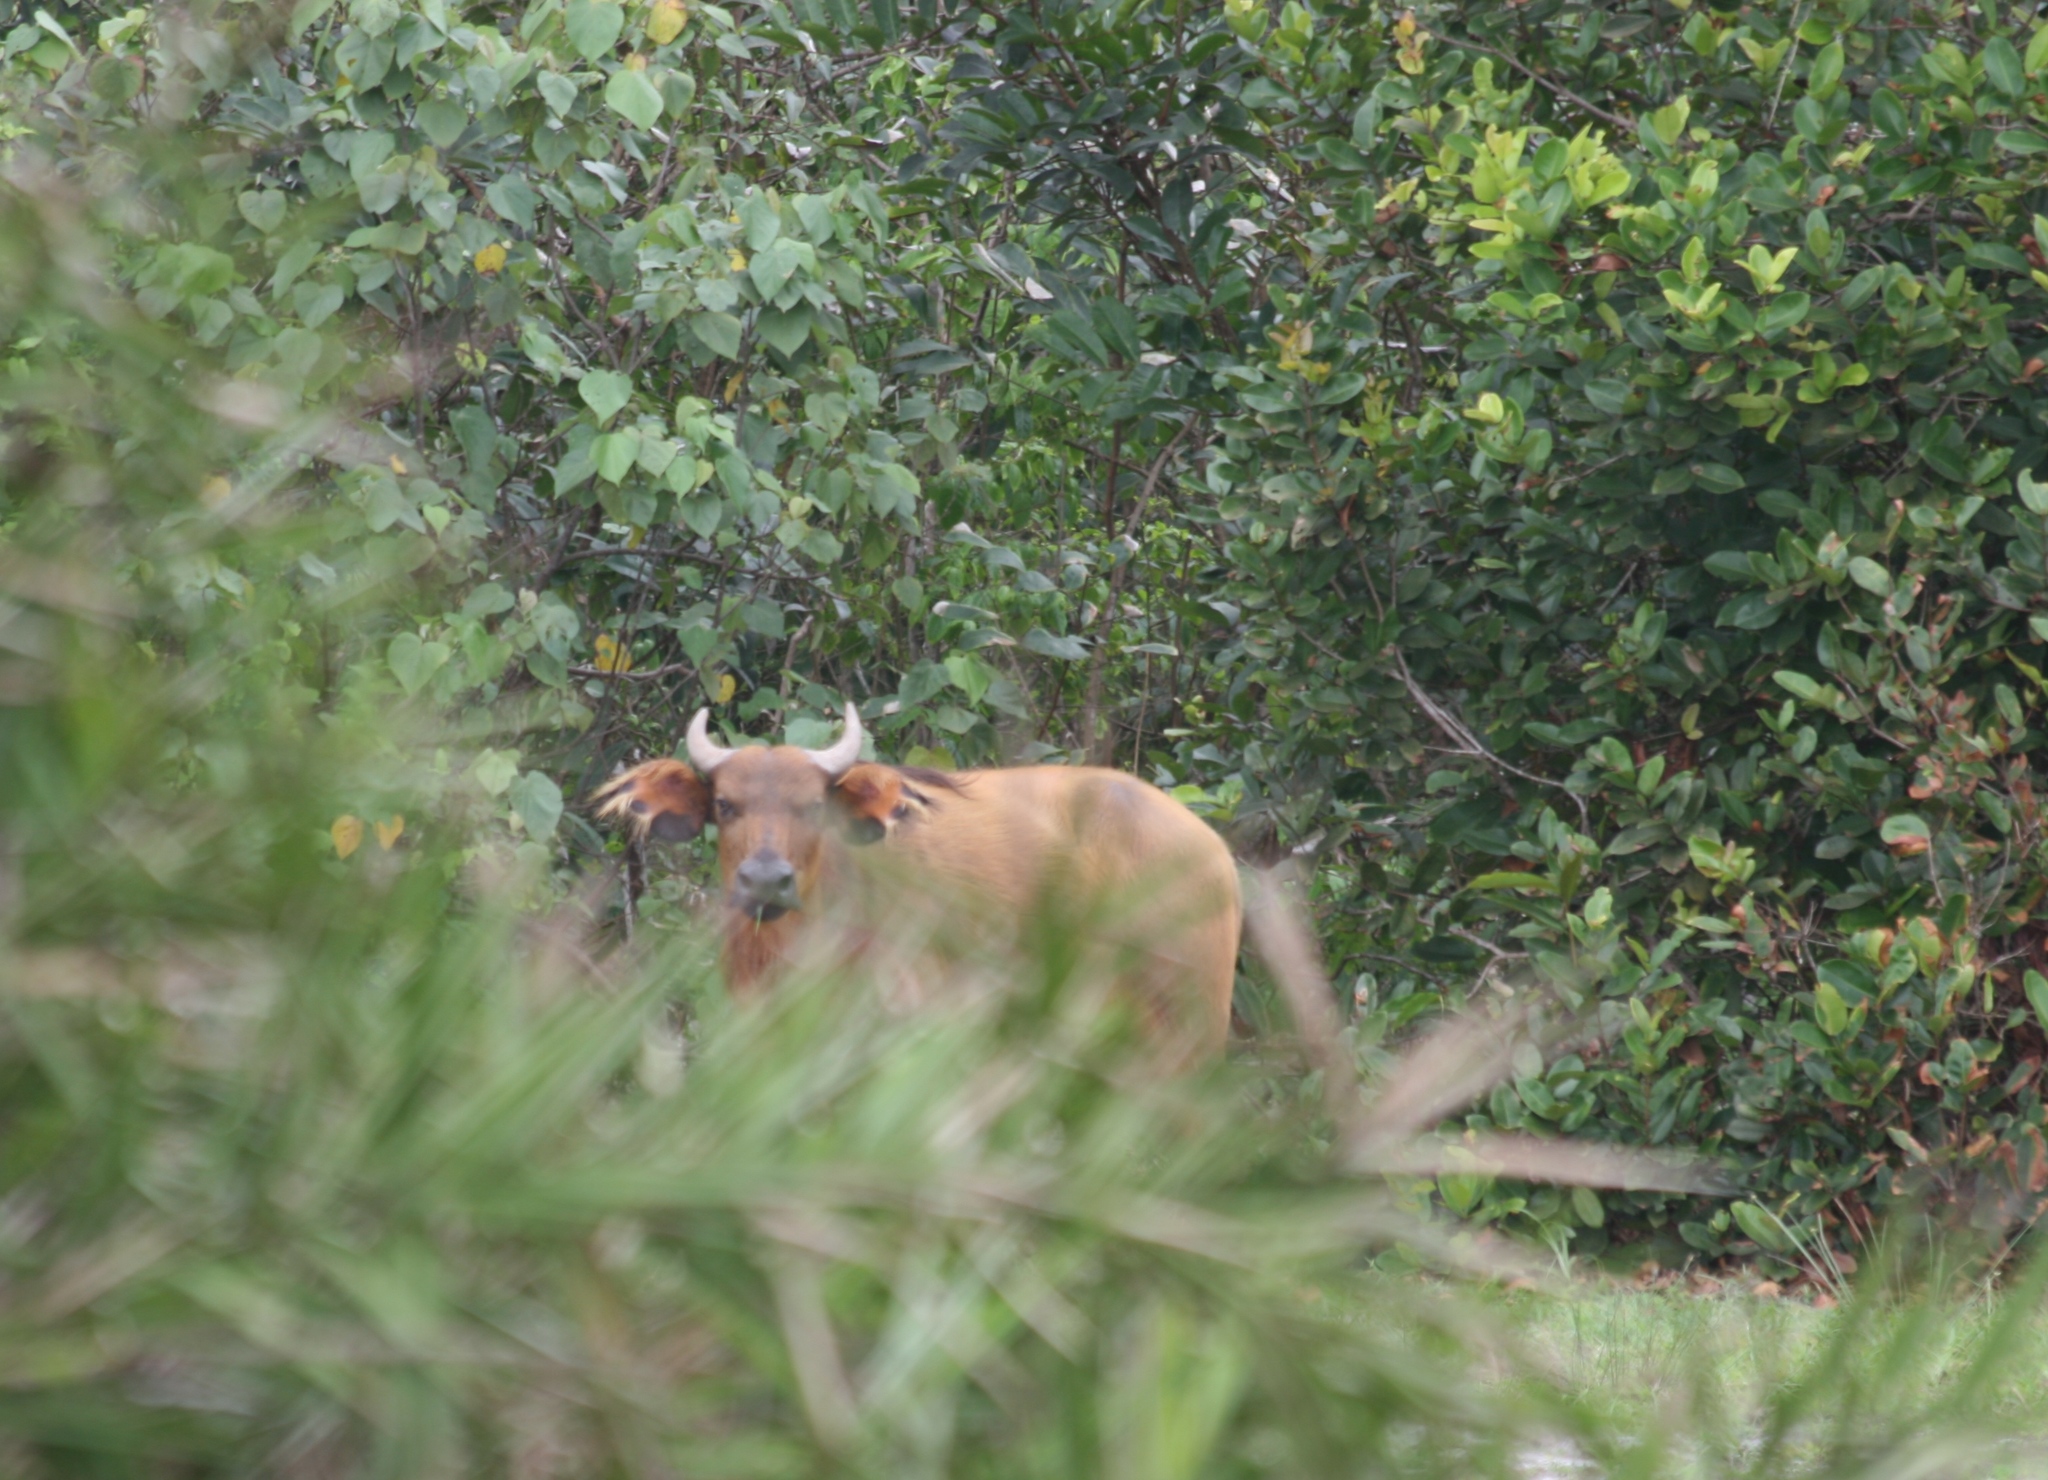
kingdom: Animalia
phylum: Chordata
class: Mammalia
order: Artiodactyla
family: Bovidae
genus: Syncerus
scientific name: Syncerus caffer
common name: African buffalo
